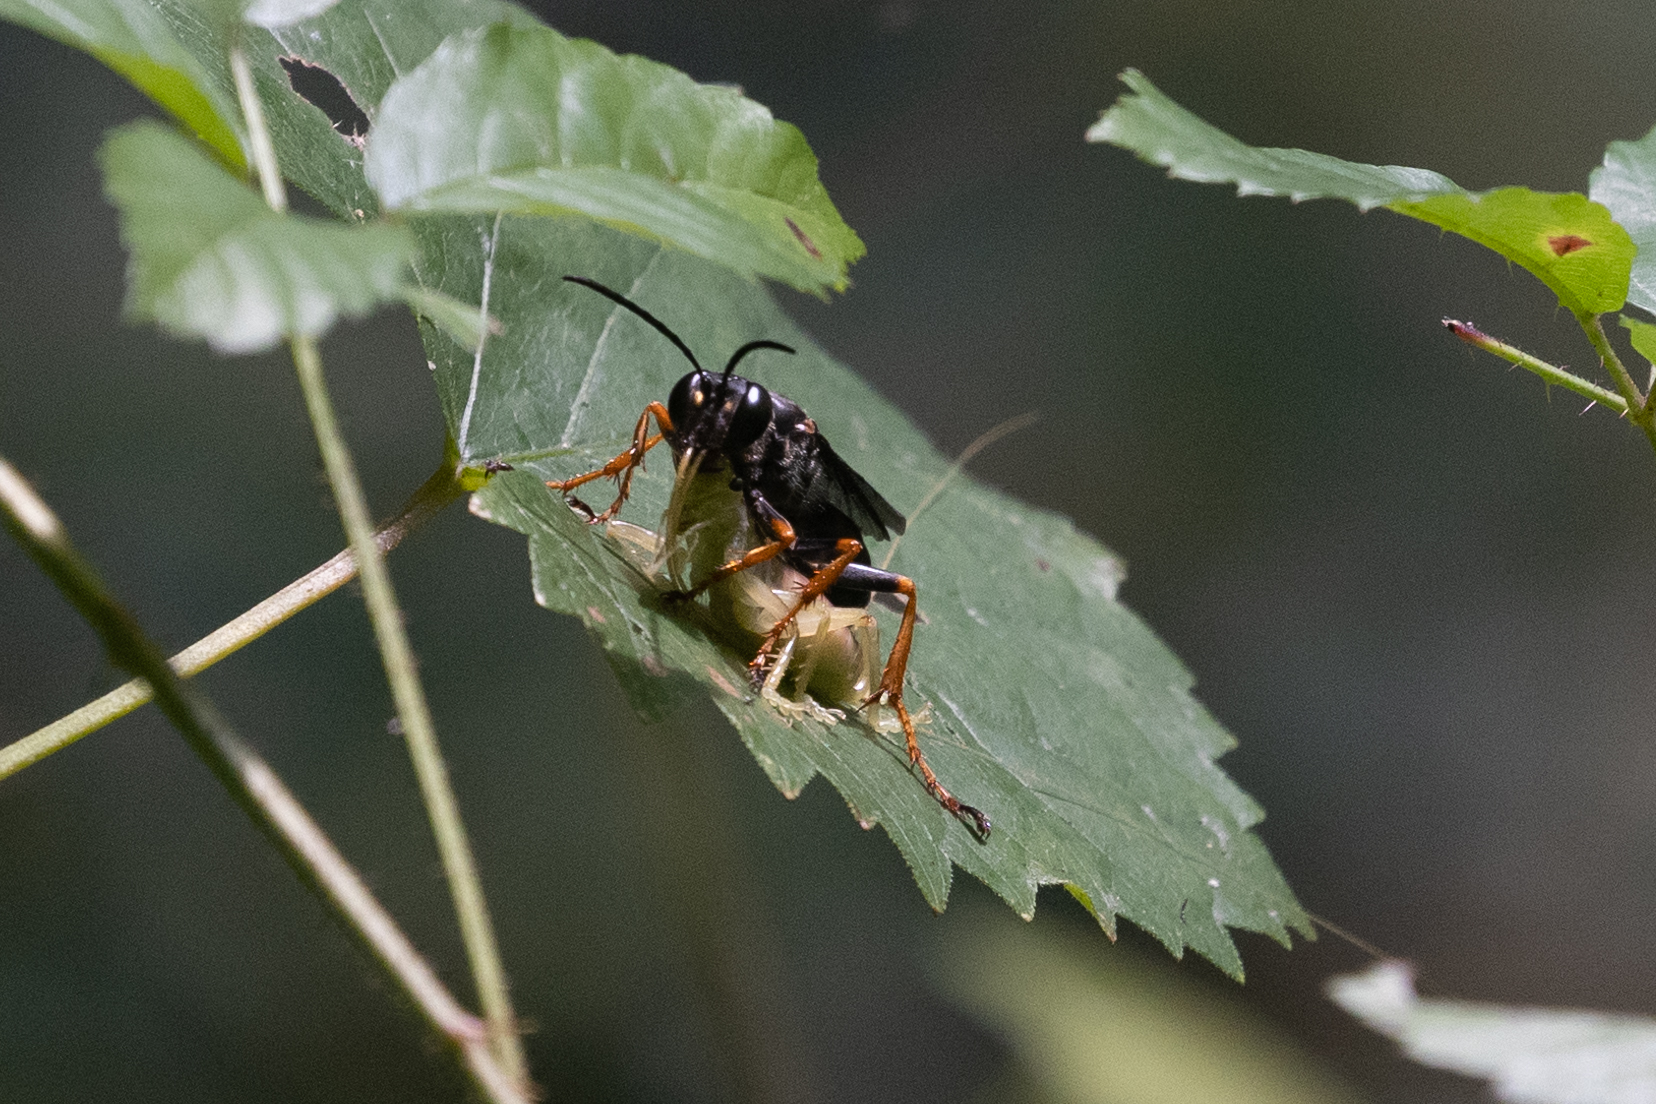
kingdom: Animalia
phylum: Arthropoda
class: Insecta
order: Hymenoptera
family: Sphecidae
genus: Sphex
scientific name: Sphex nudus
